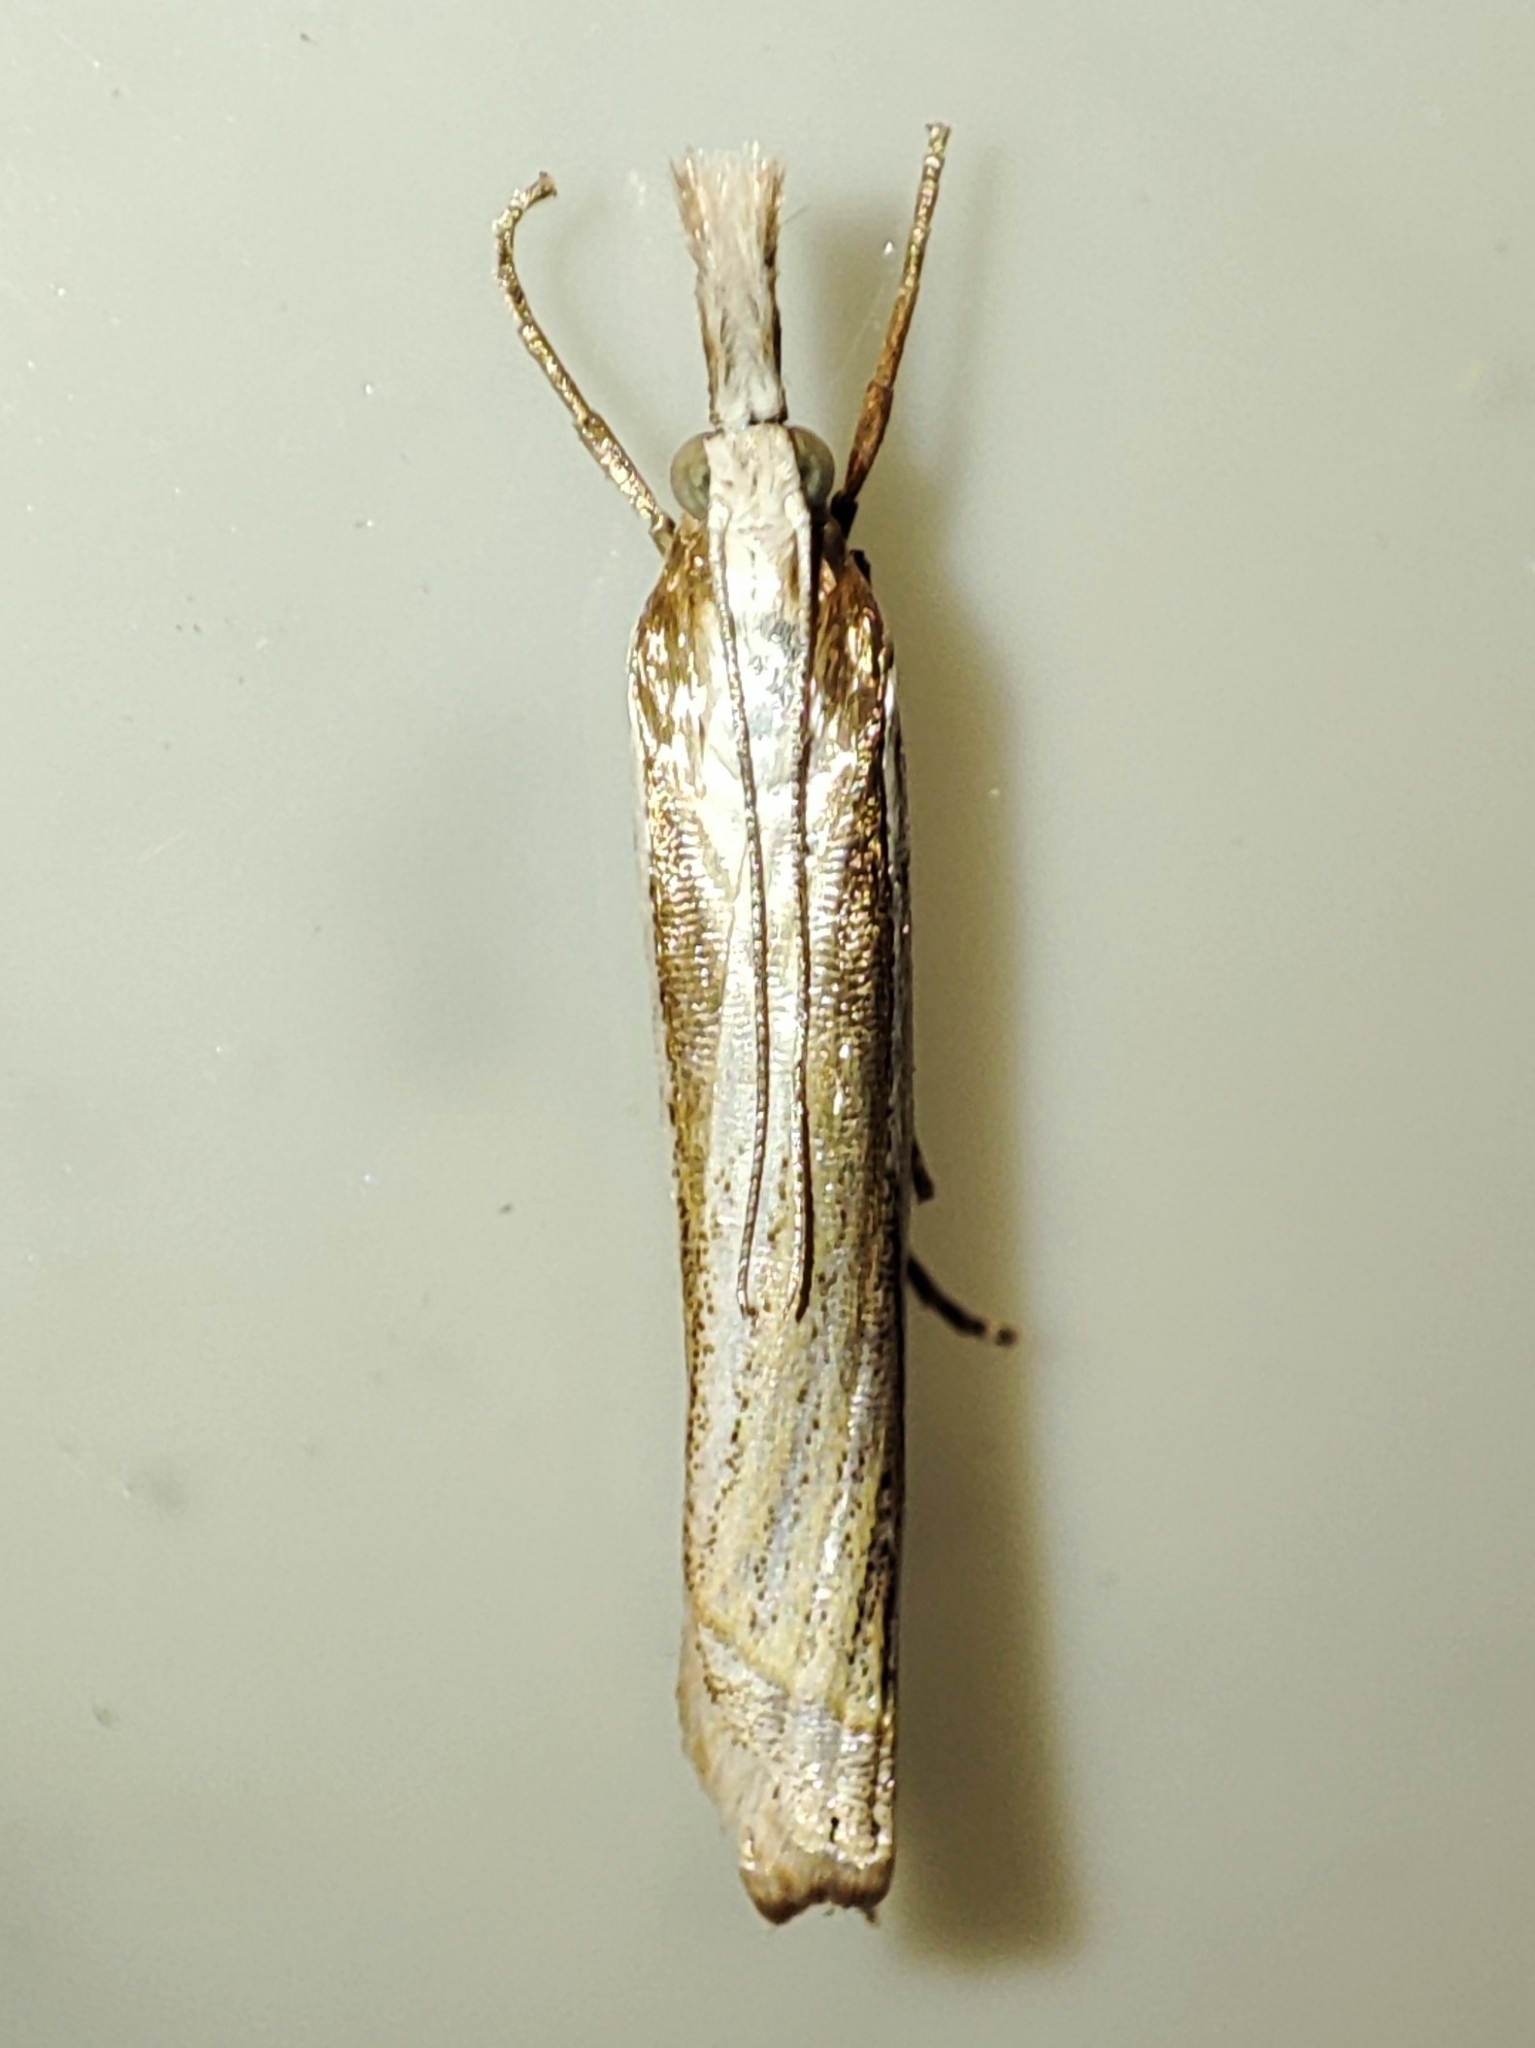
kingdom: Animalia
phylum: Arthropoda
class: Insecta
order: Lepidoptera
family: Crambidae
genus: Crambus
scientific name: Crambus pascuella
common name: Inlaid grass-veneer
